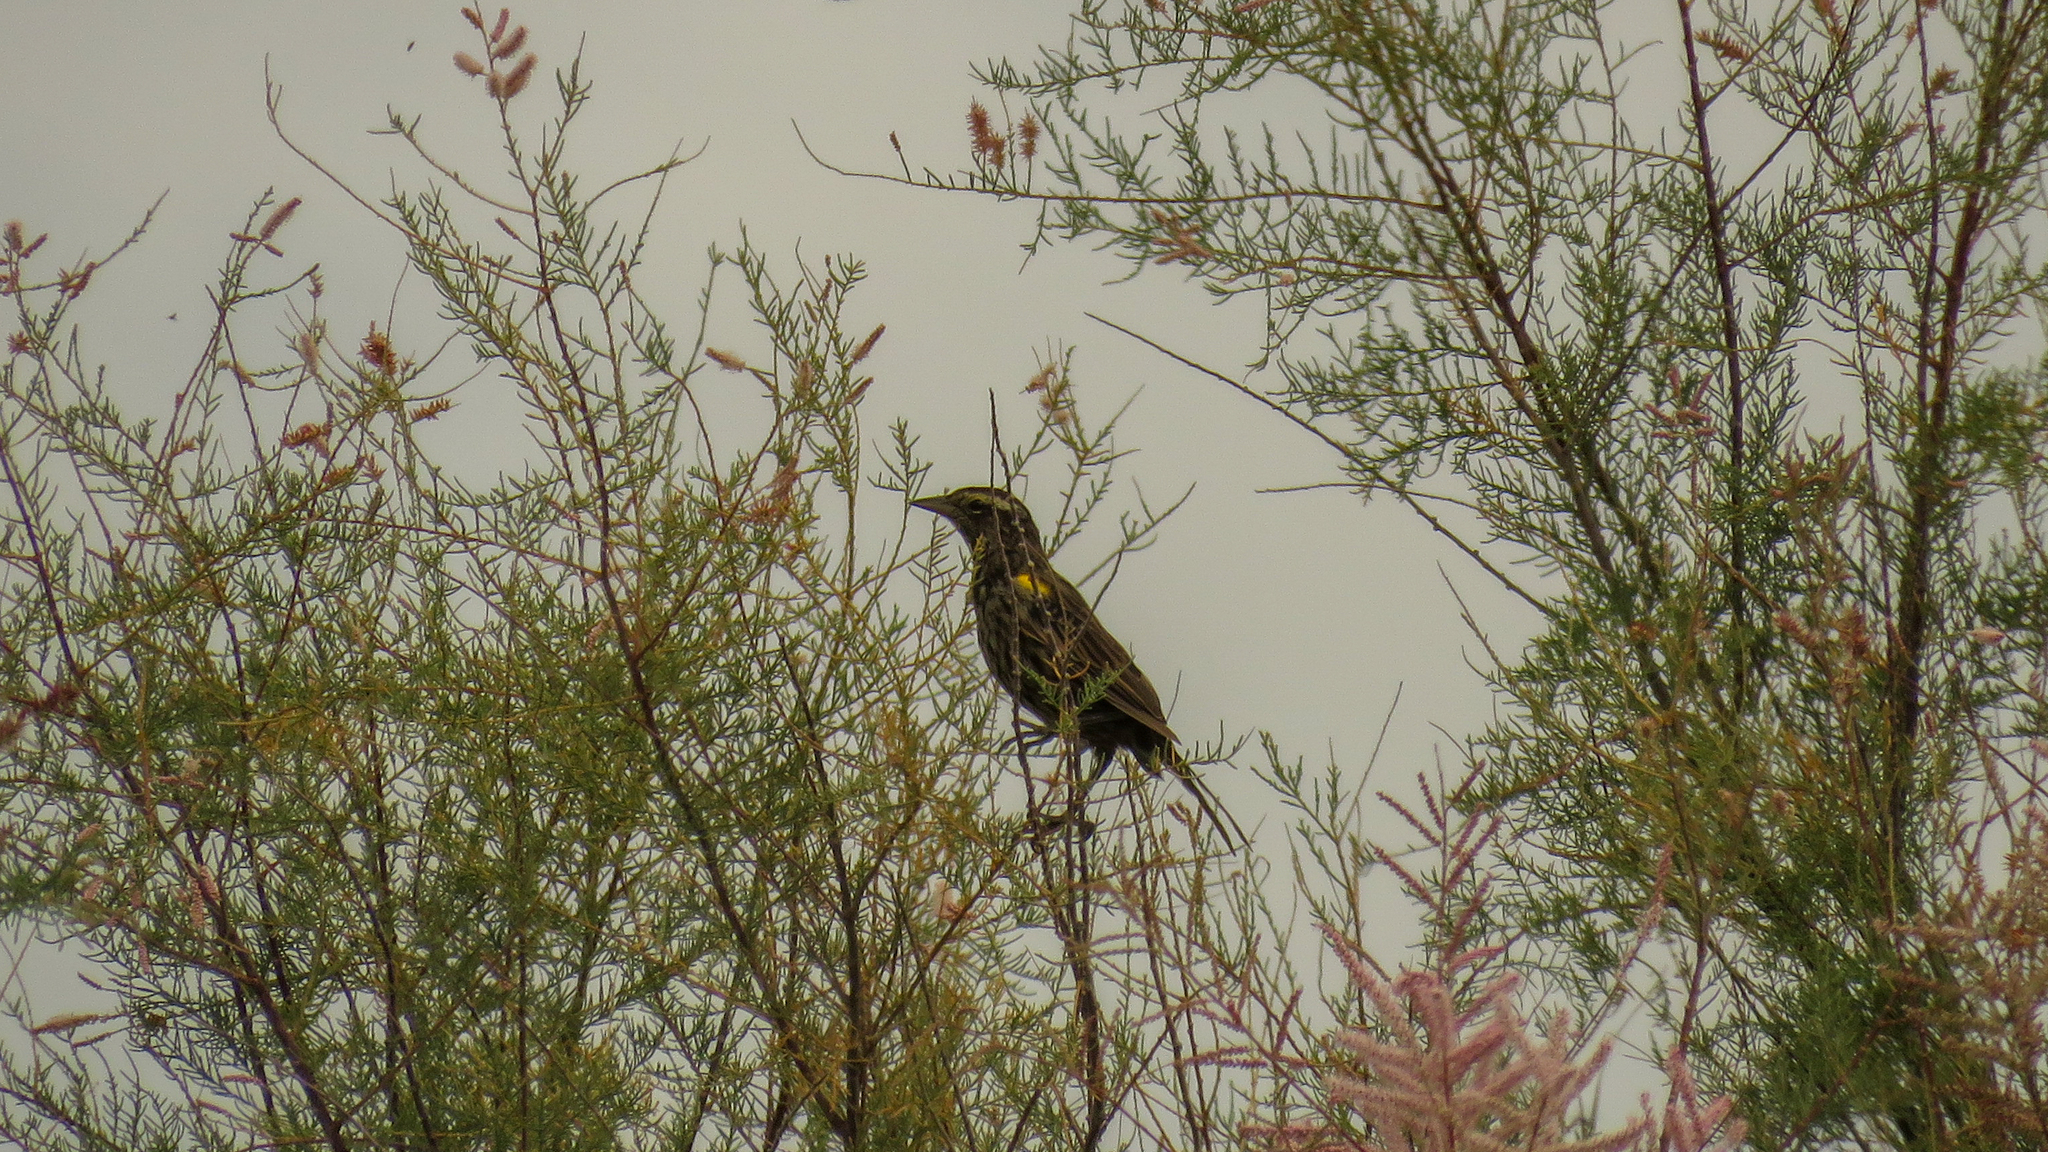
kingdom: Animalia
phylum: Chordata
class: Aves
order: Passeriformes
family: Icteridae
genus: Agelasticus
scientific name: Agelasticus thilius
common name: Yellow-winged blackbird
